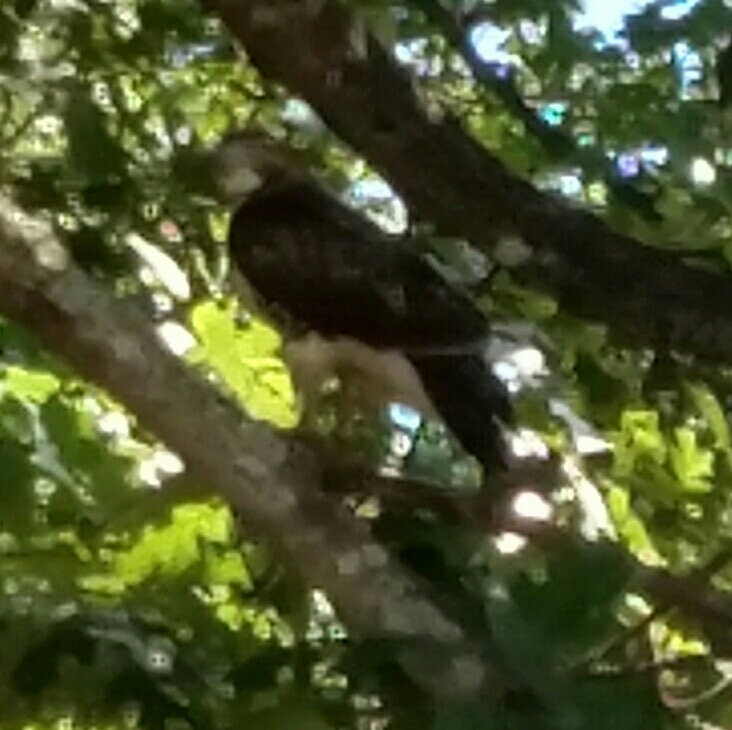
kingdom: Animalia
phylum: Chordata
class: Aves
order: Accipitriformes
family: Pandionidae
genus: Pandion
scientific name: Pandion haliaetus
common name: Osprey
